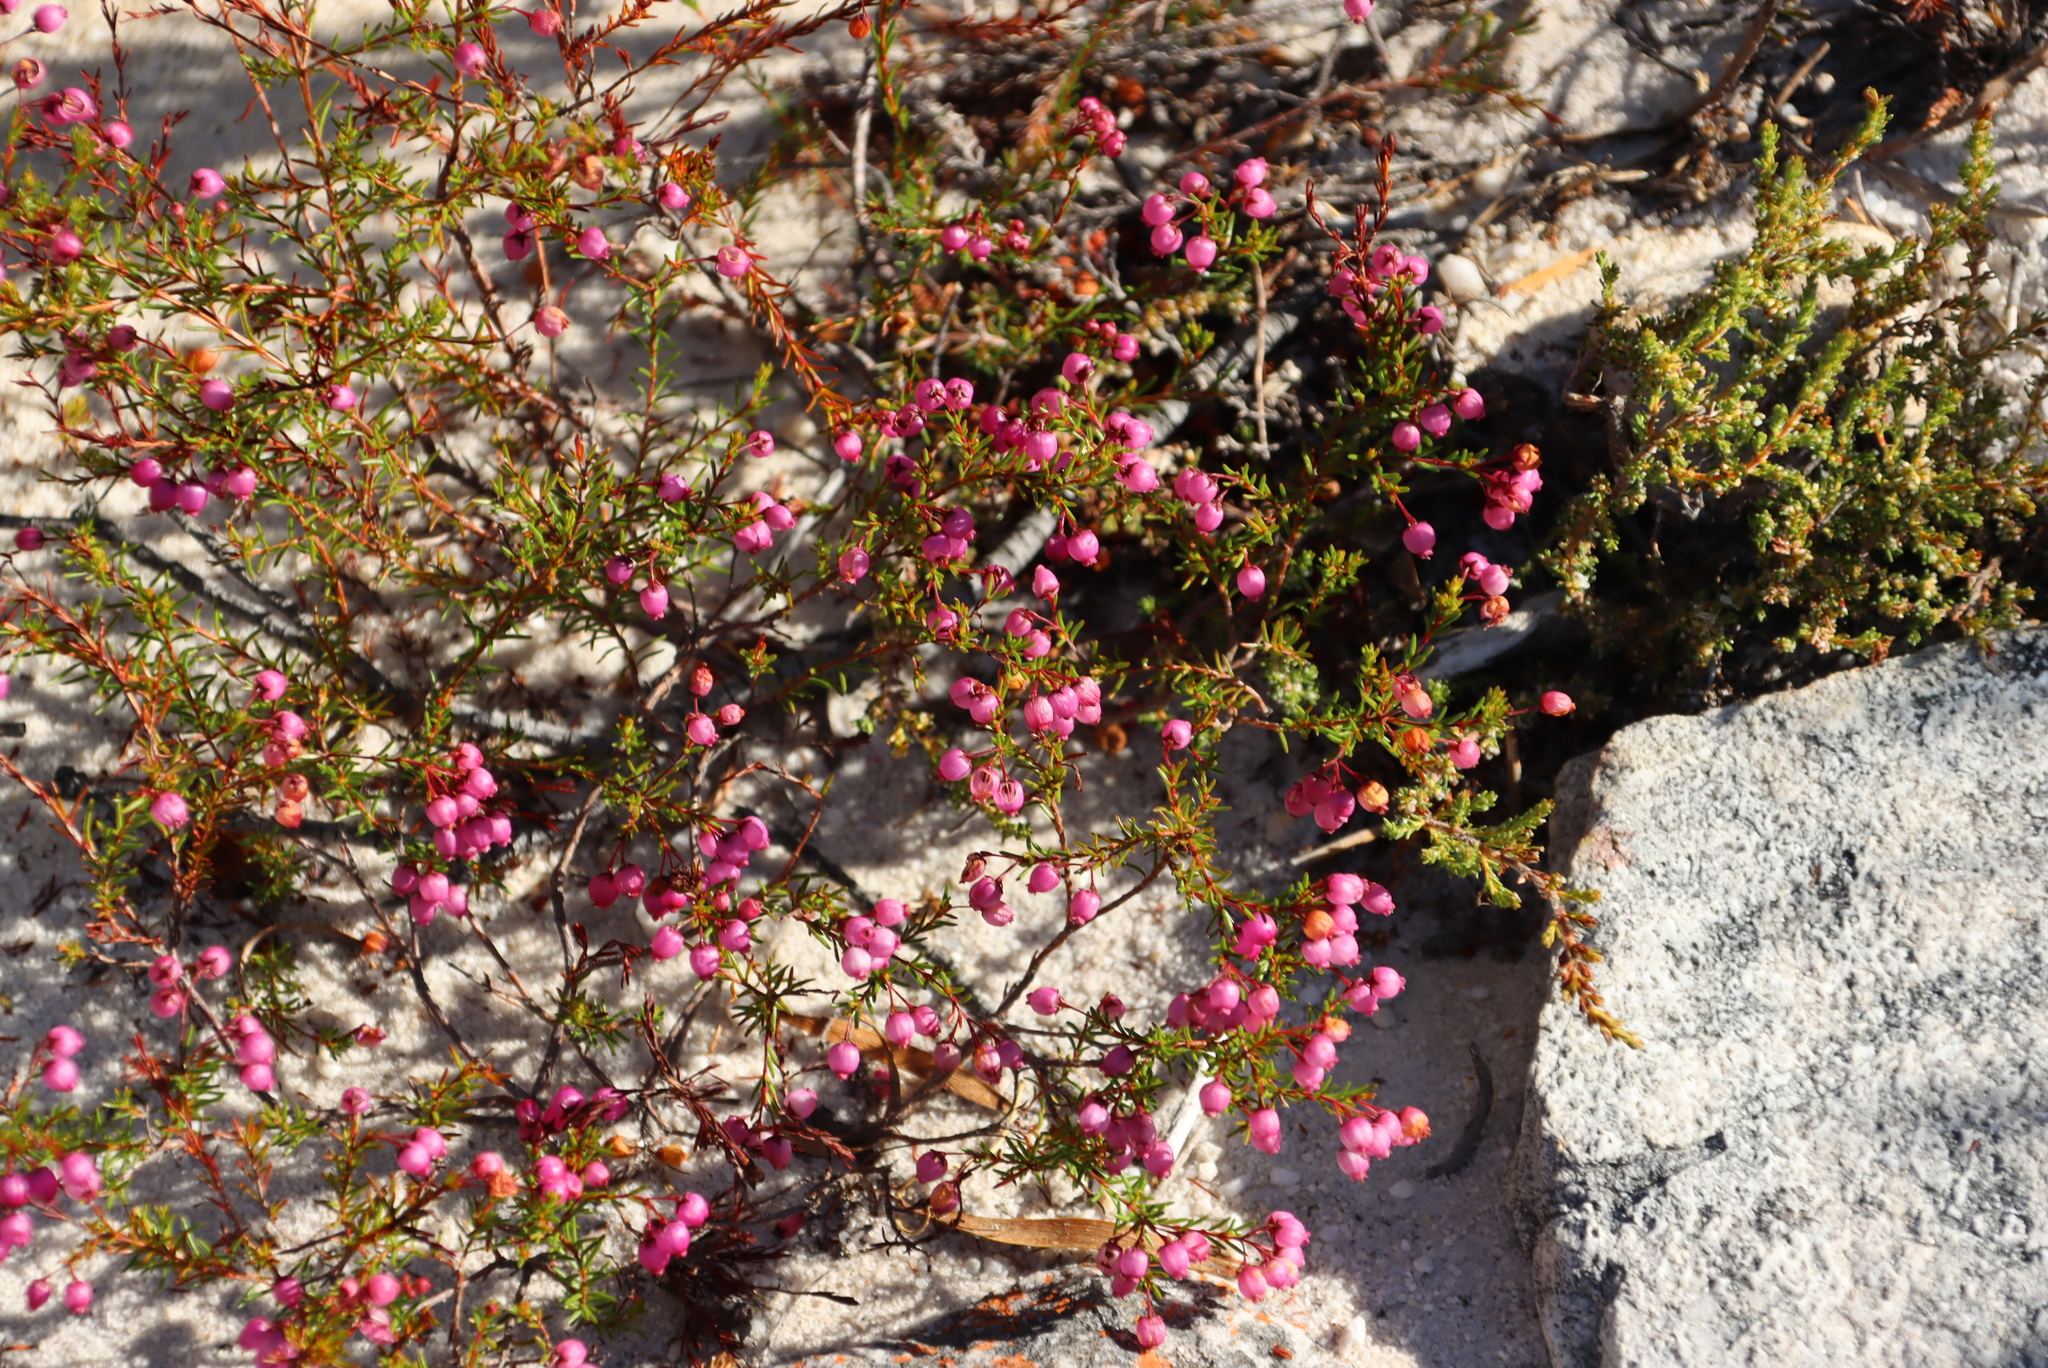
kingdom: Plantae
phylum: Tracheophyta
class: Magnoliopsida
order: Ericales
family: Ericaceae
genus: Erica
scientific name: Erica multumbellifera
